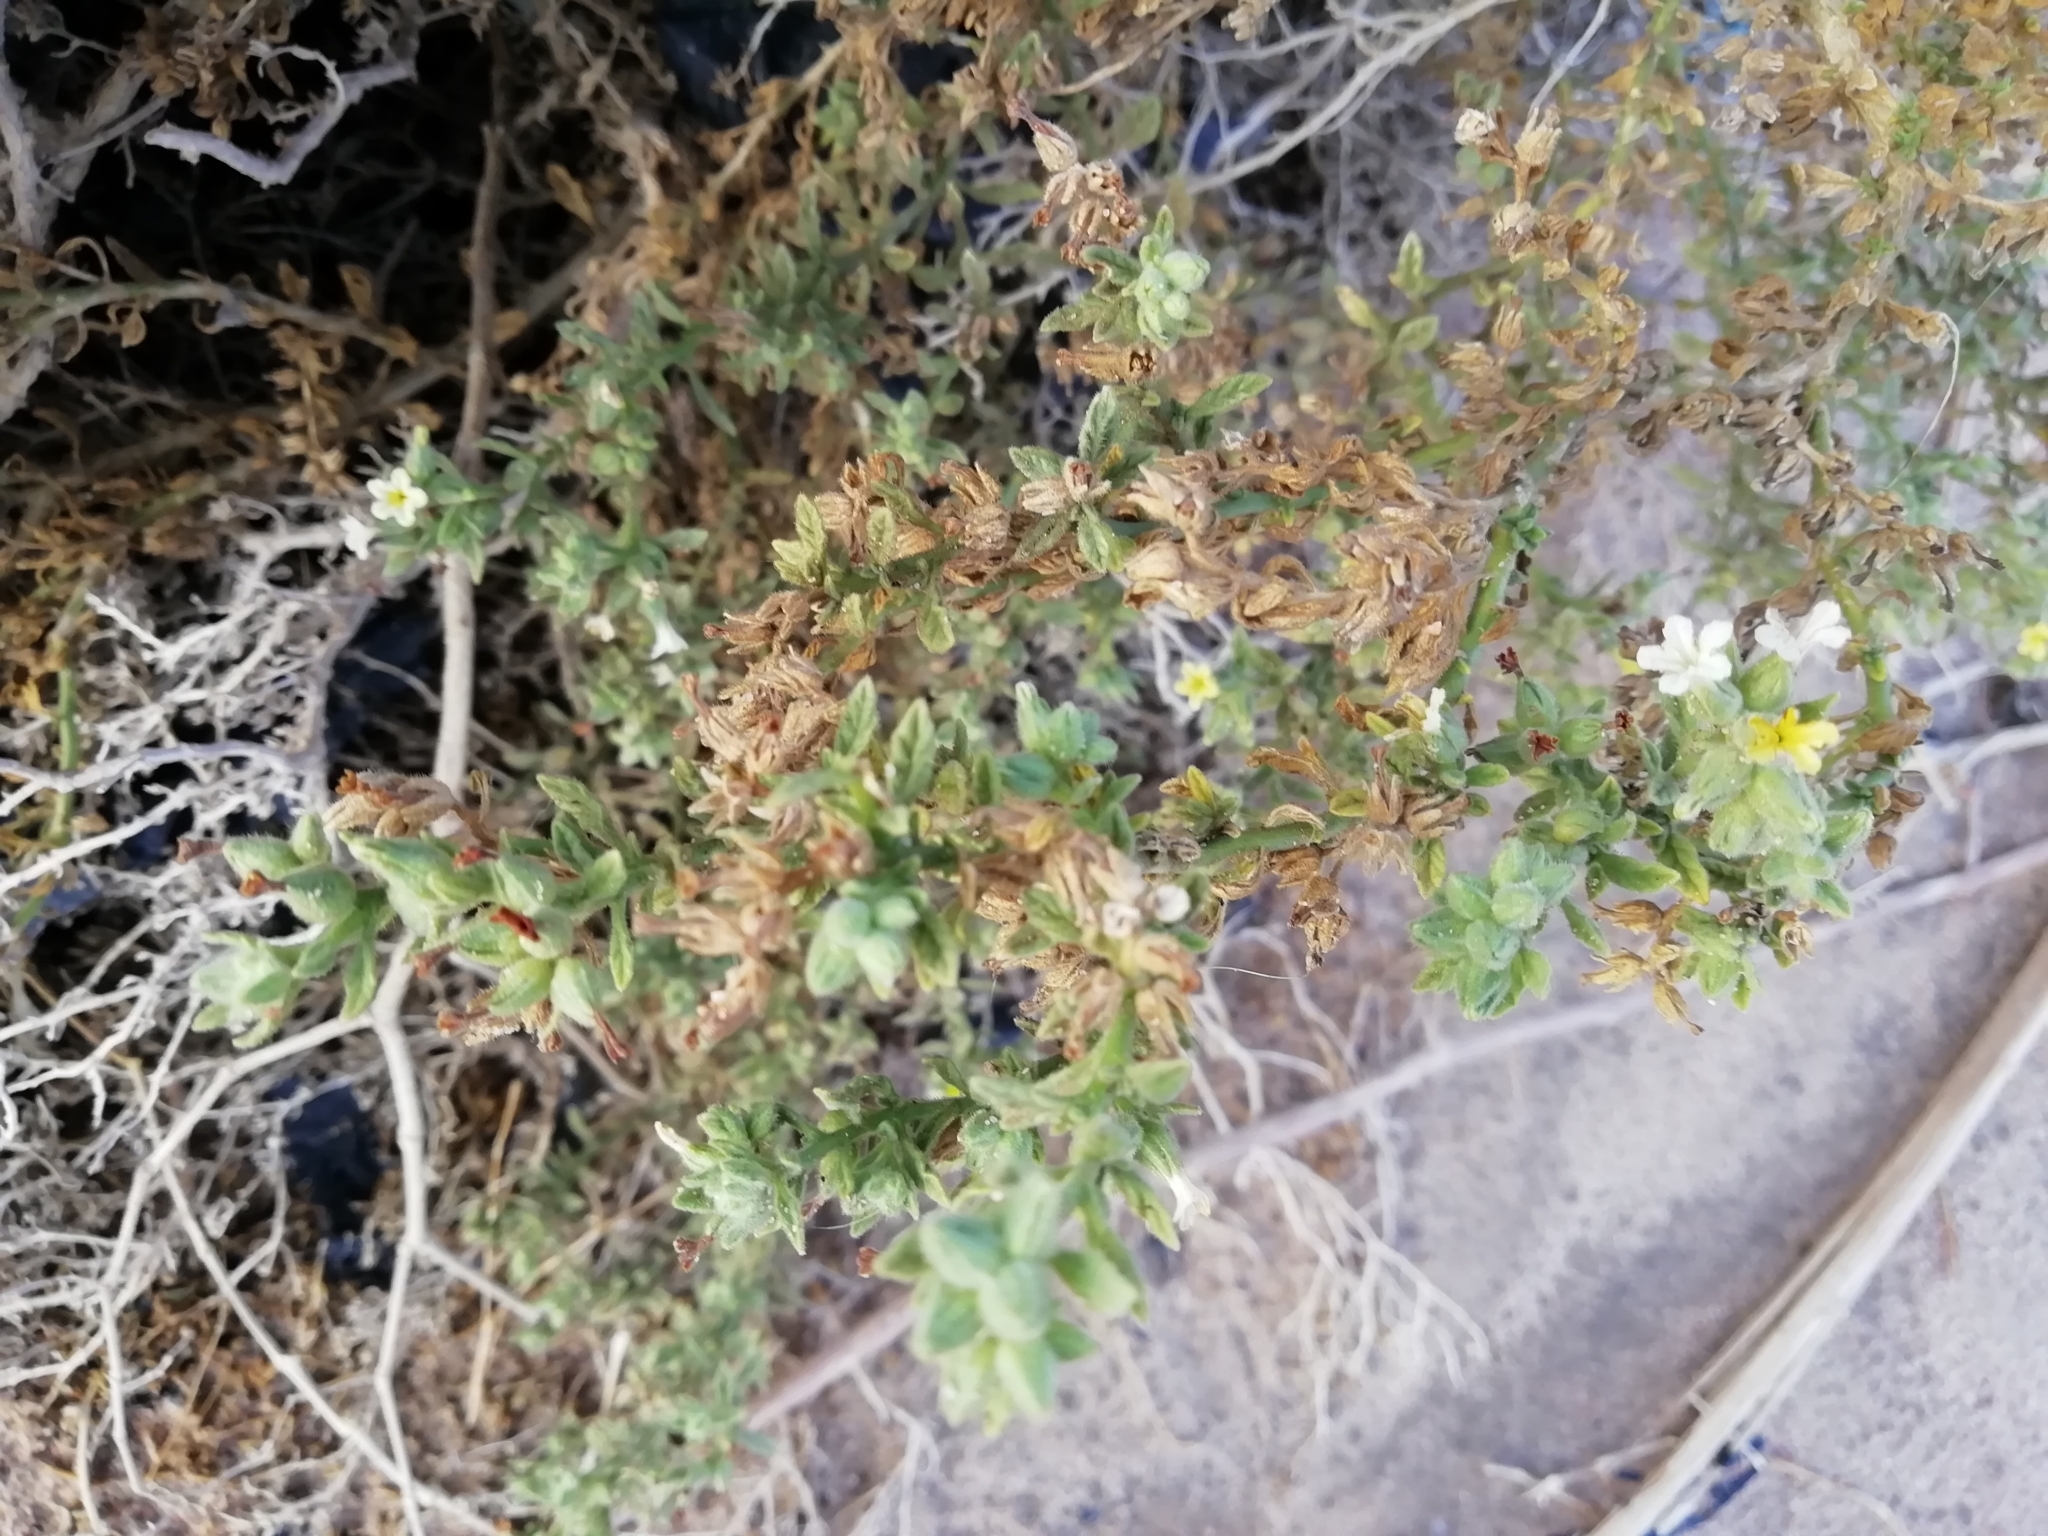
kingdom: Plantae
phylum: Tracheophyta
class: Magnoliopsida
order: Boraginales
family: Heliotropiaceae
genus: Heliotropium
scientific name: Heliotropium arbainense
